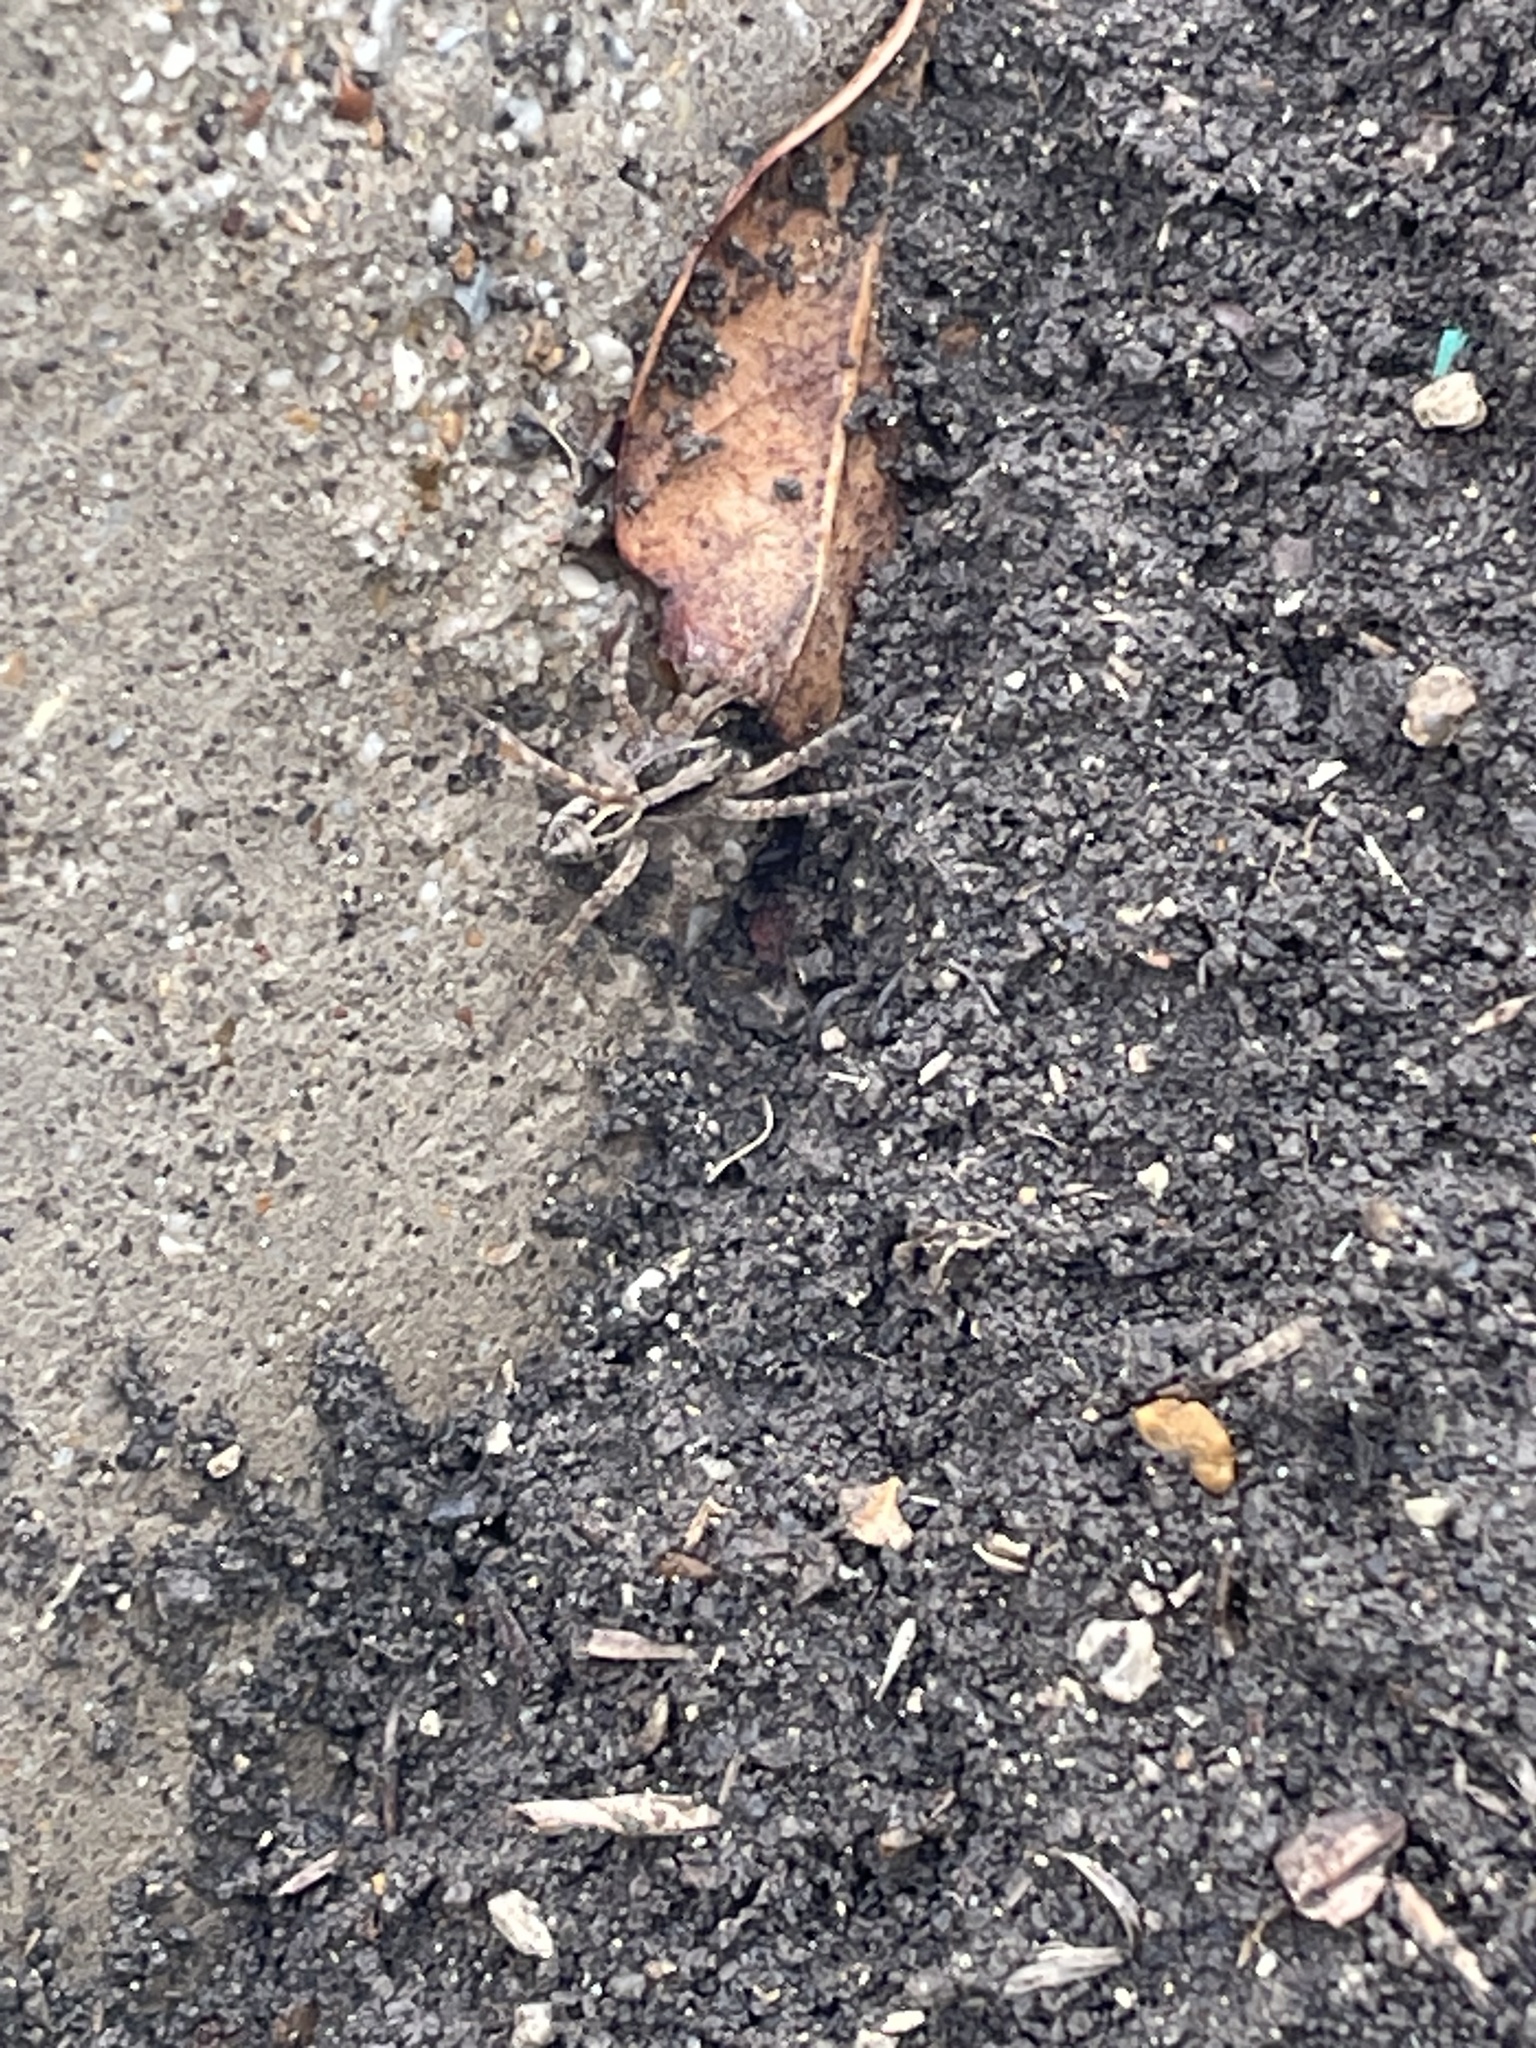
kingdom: Animalia
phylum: Arthropoda
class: Arachnida
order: Araneae
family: Lycosidae
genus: Schizocosa
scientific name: Schizocosa avida
